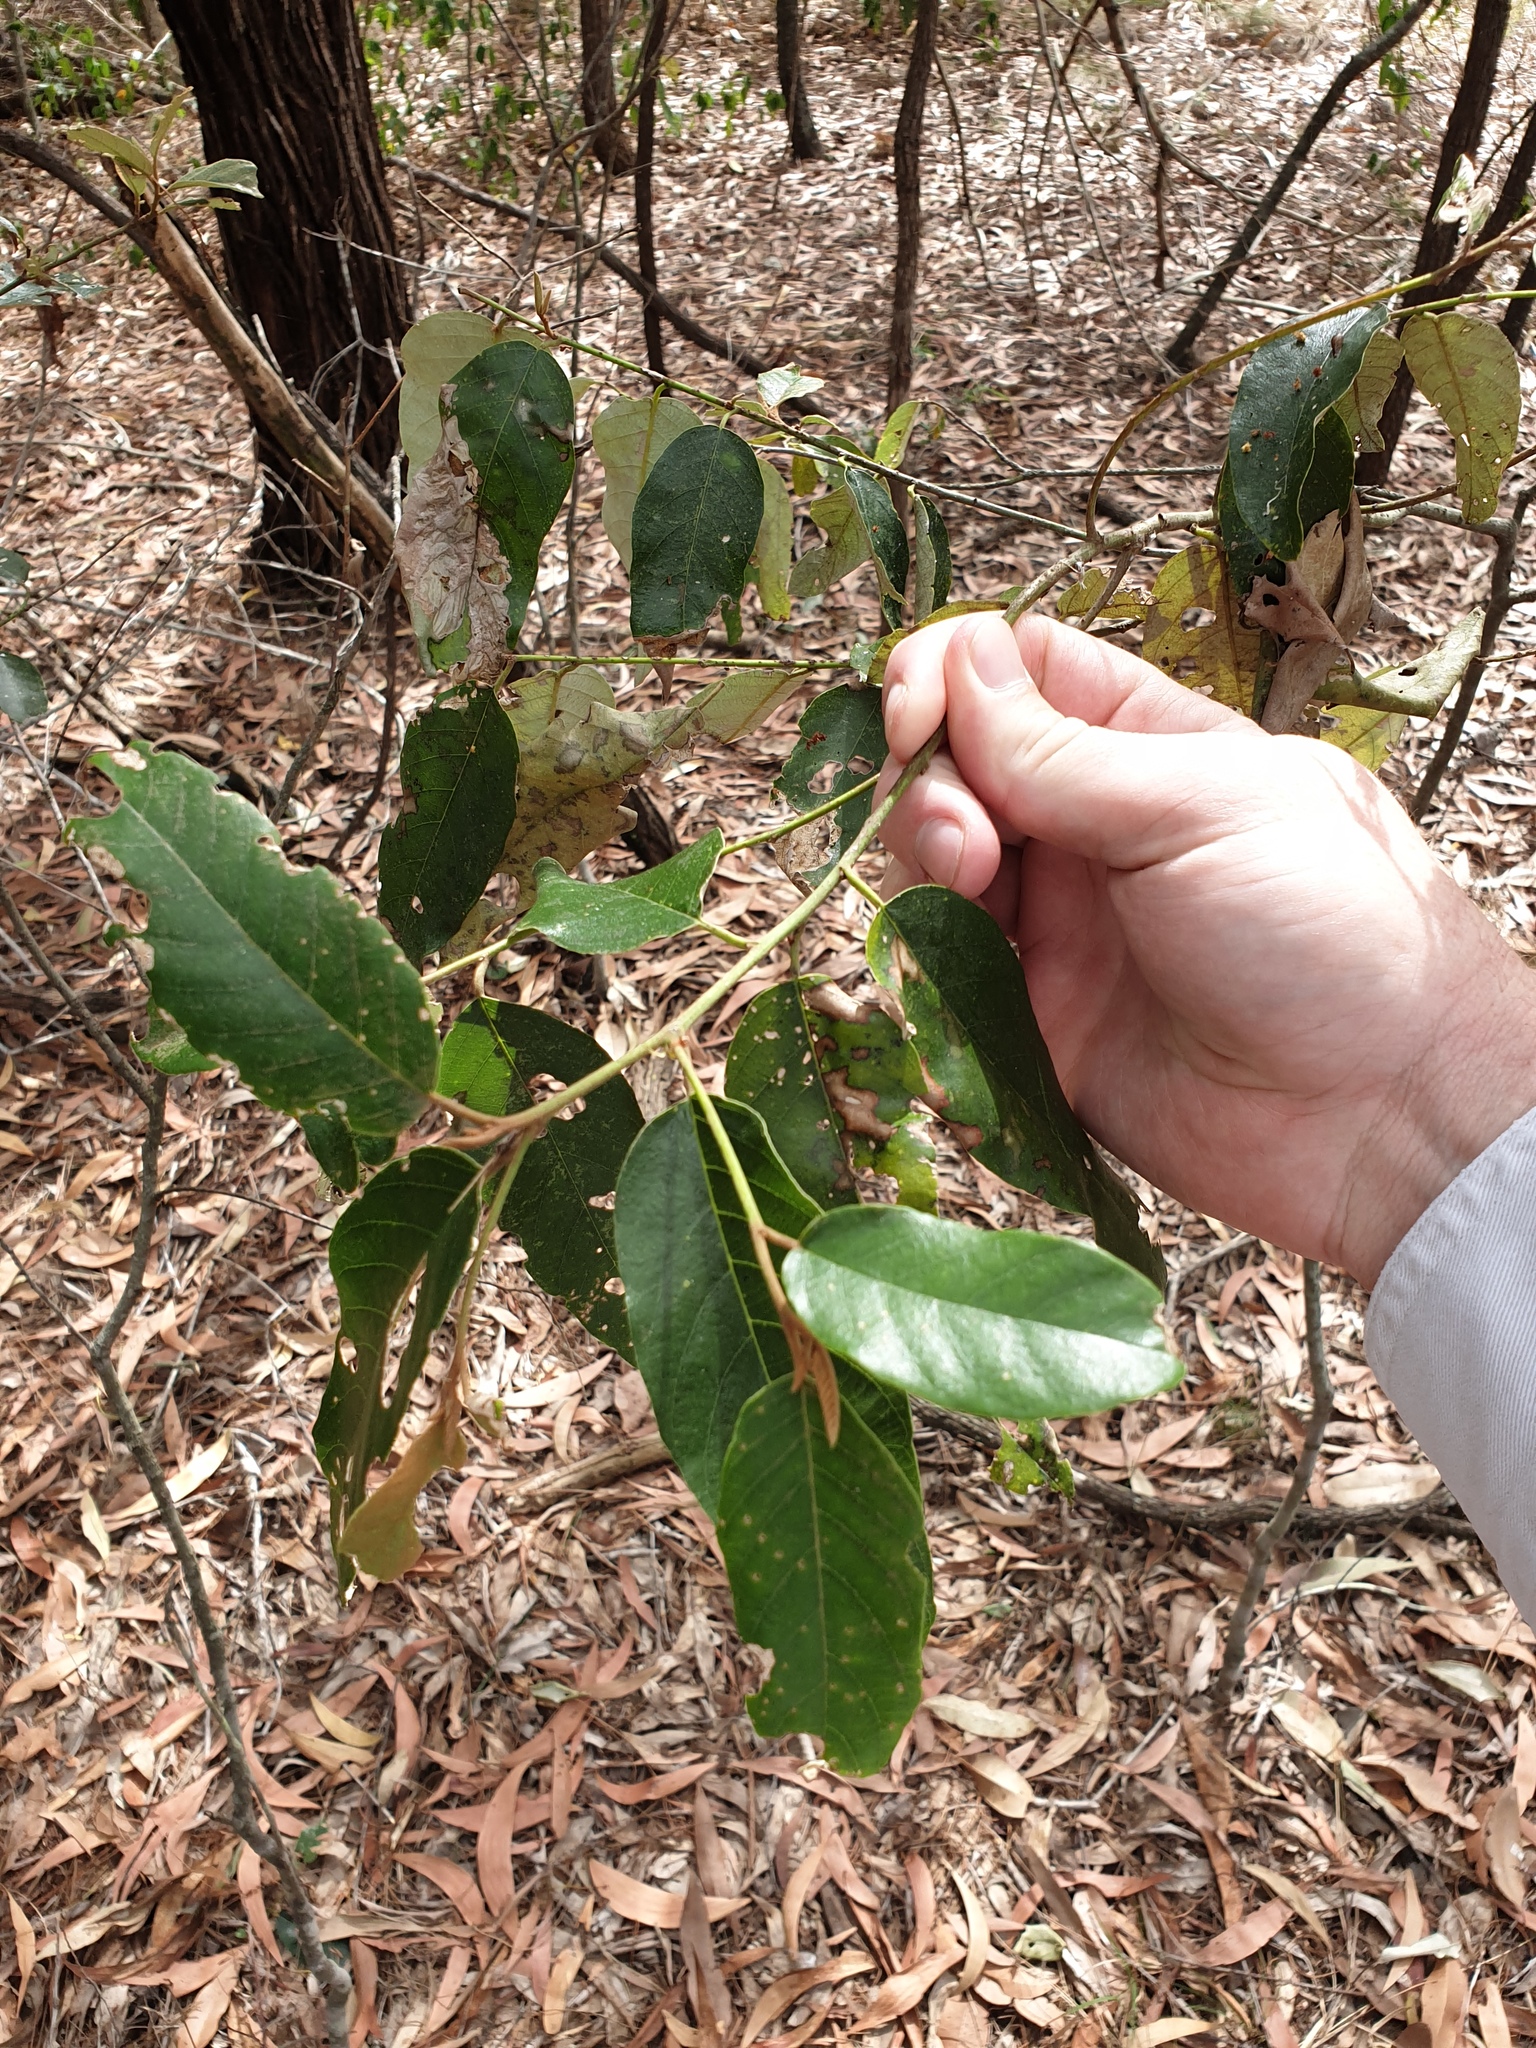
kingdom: Plantae
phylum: Tracheophyta
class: Magnoliopsida
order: Rosales
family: Rhamnaceae
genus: Alphitonia
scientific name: Alphitonia excelsa
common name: Red ash
